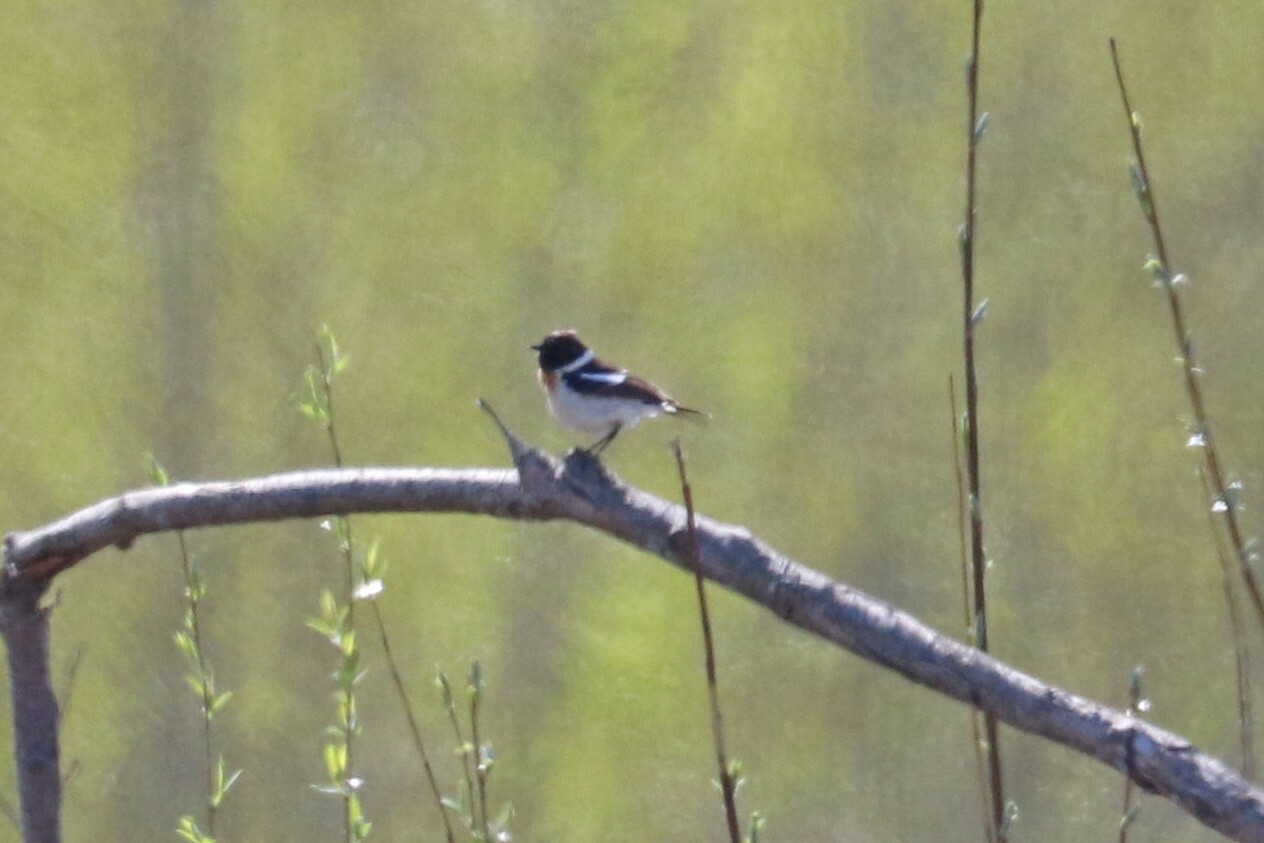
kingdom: Animalia
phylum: Chordata
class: Aves
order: Passeriformes
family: Muscicapidae
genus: Saxicola
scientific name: Saxicola maurus
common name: Siberian stonechat
